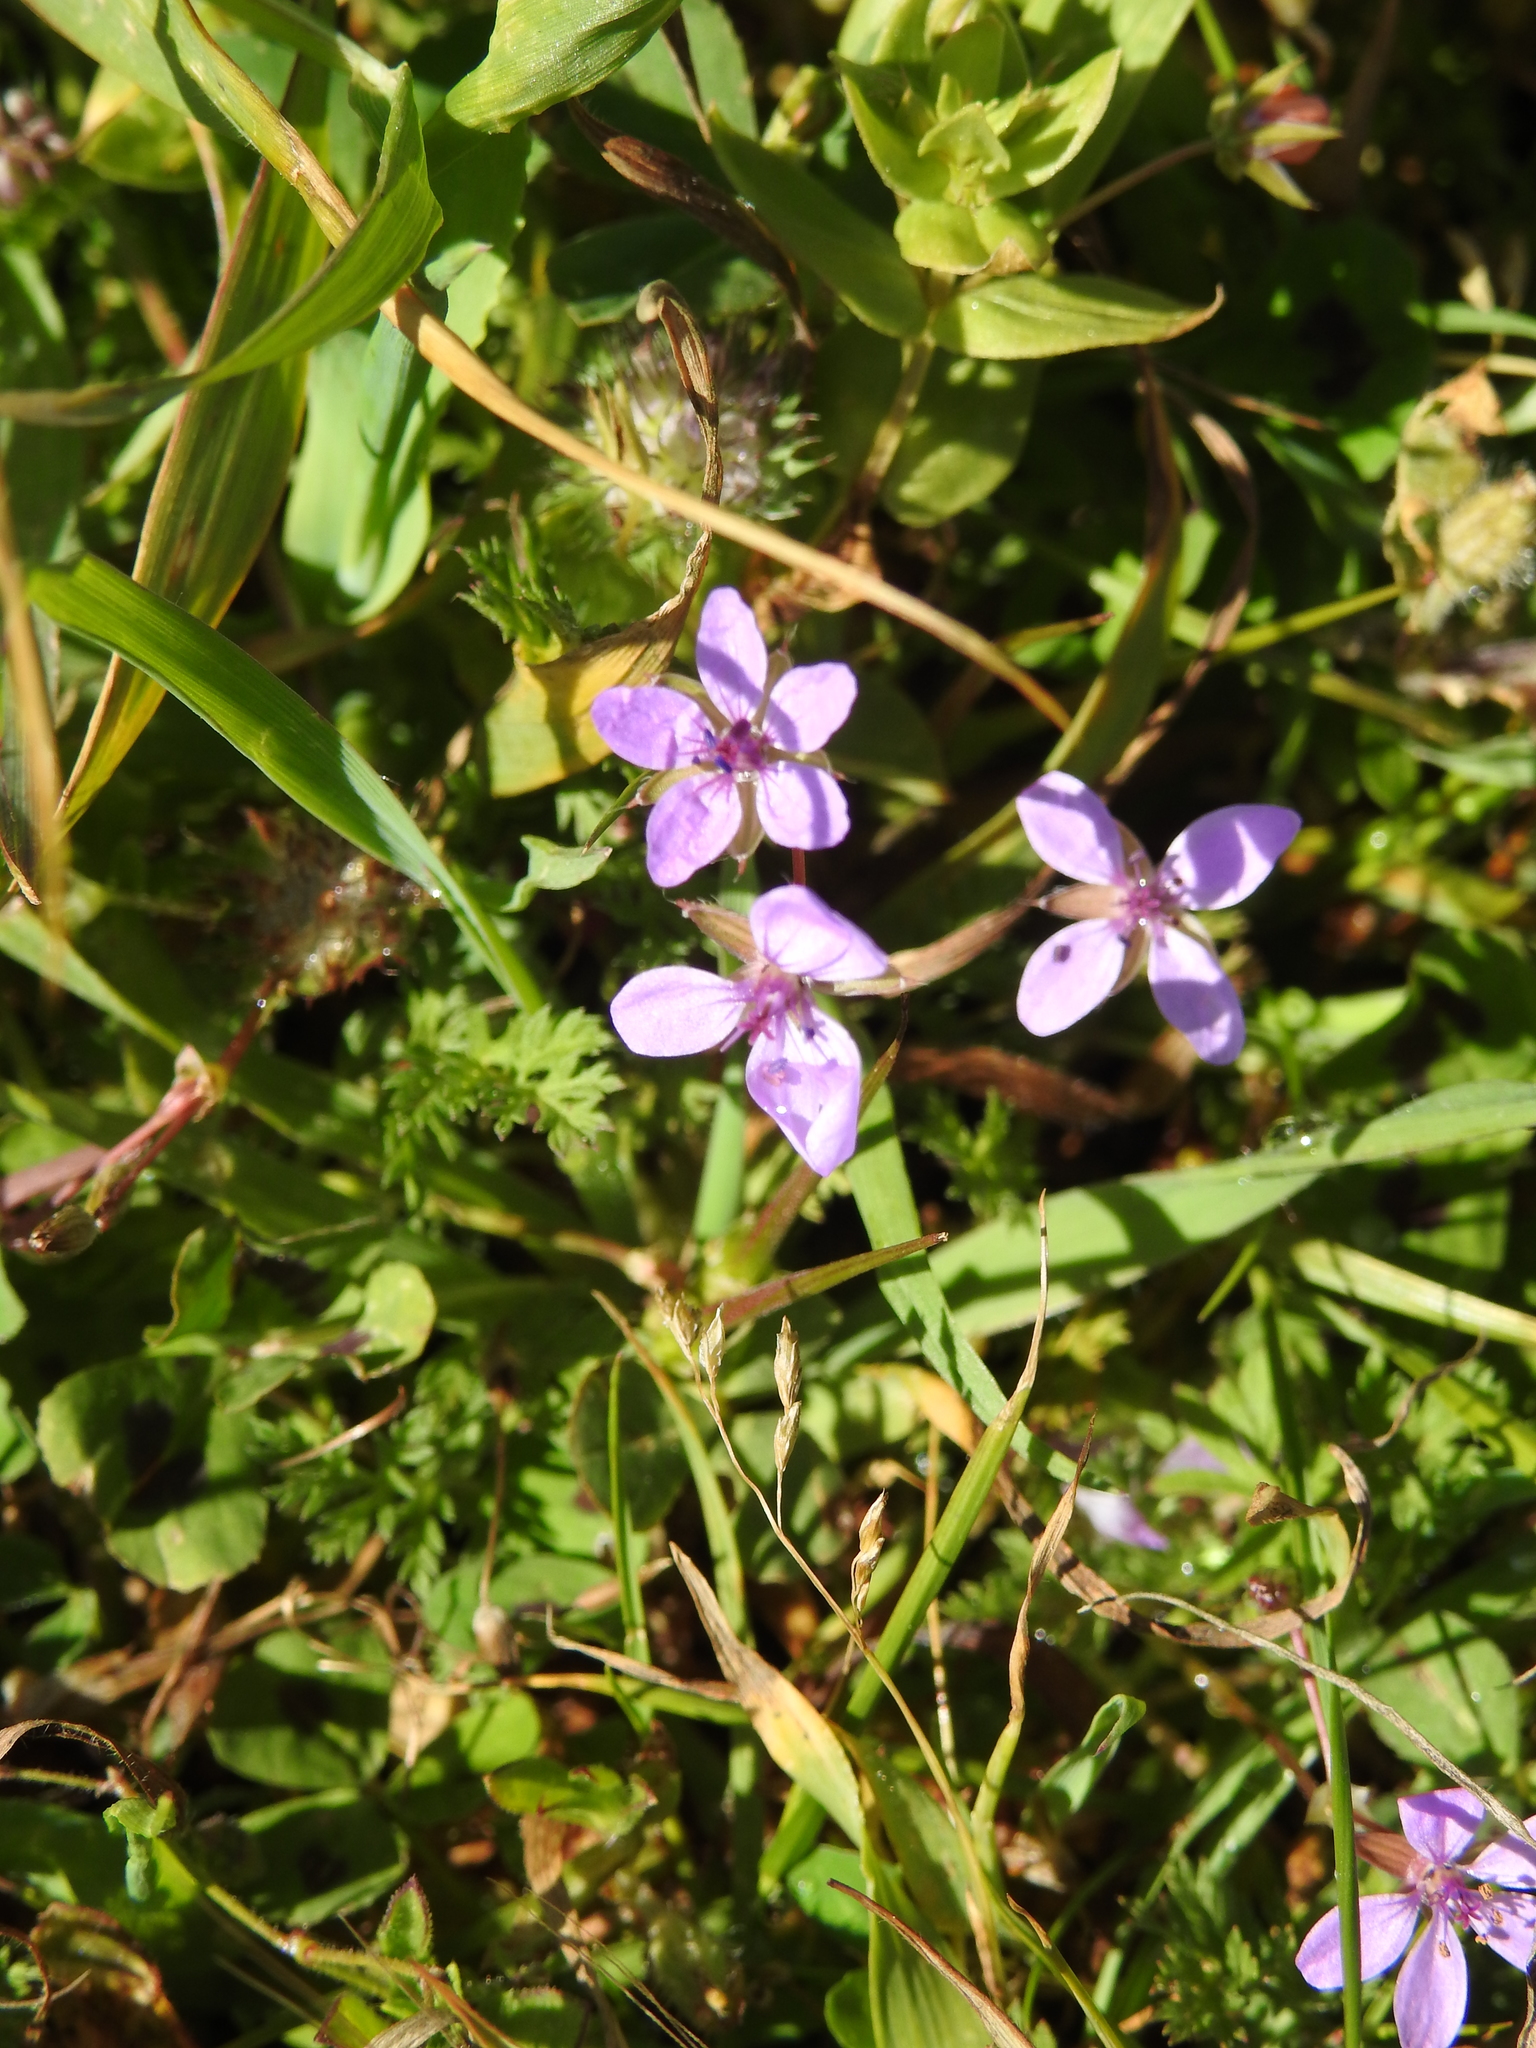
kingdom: Plantae
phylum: Tracheophyta
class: Magnoliopsida
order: Geraniales
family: Geraniaceae
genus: Erodium
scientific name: Erodium cicutarium
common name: Common stork's-bill
